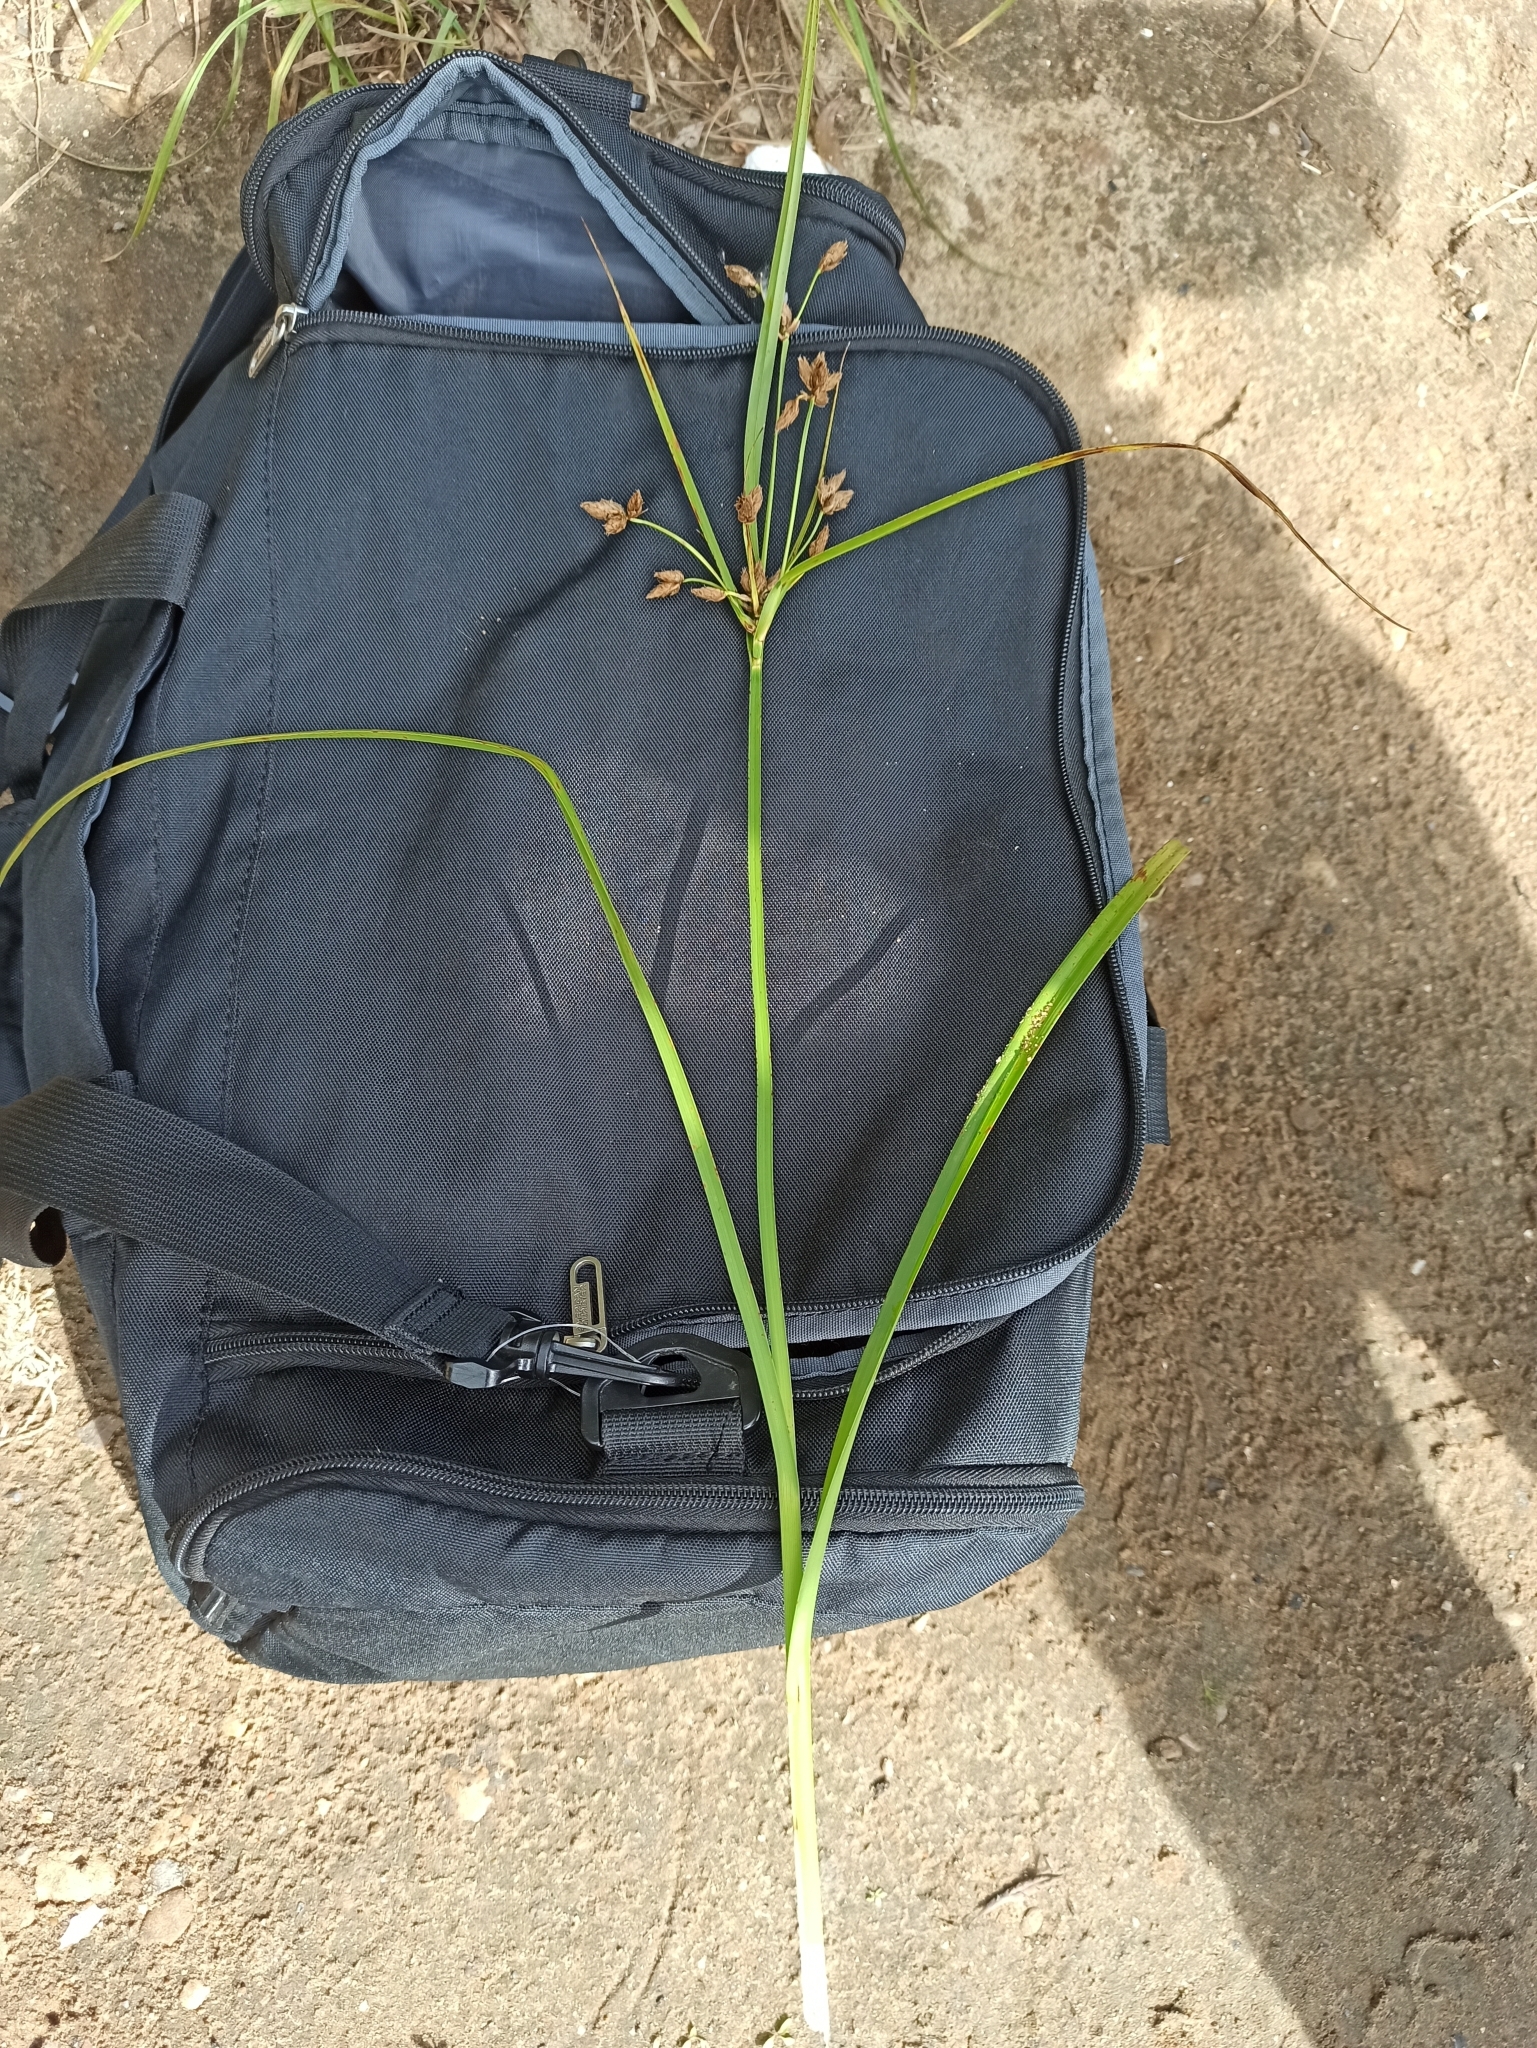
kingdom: Plantae
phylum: Tracheophyta
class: Liliopsida
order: Poales
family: Cyperaceae
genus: Bolboschoenus
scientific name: Bolboschoenus laticarpus
